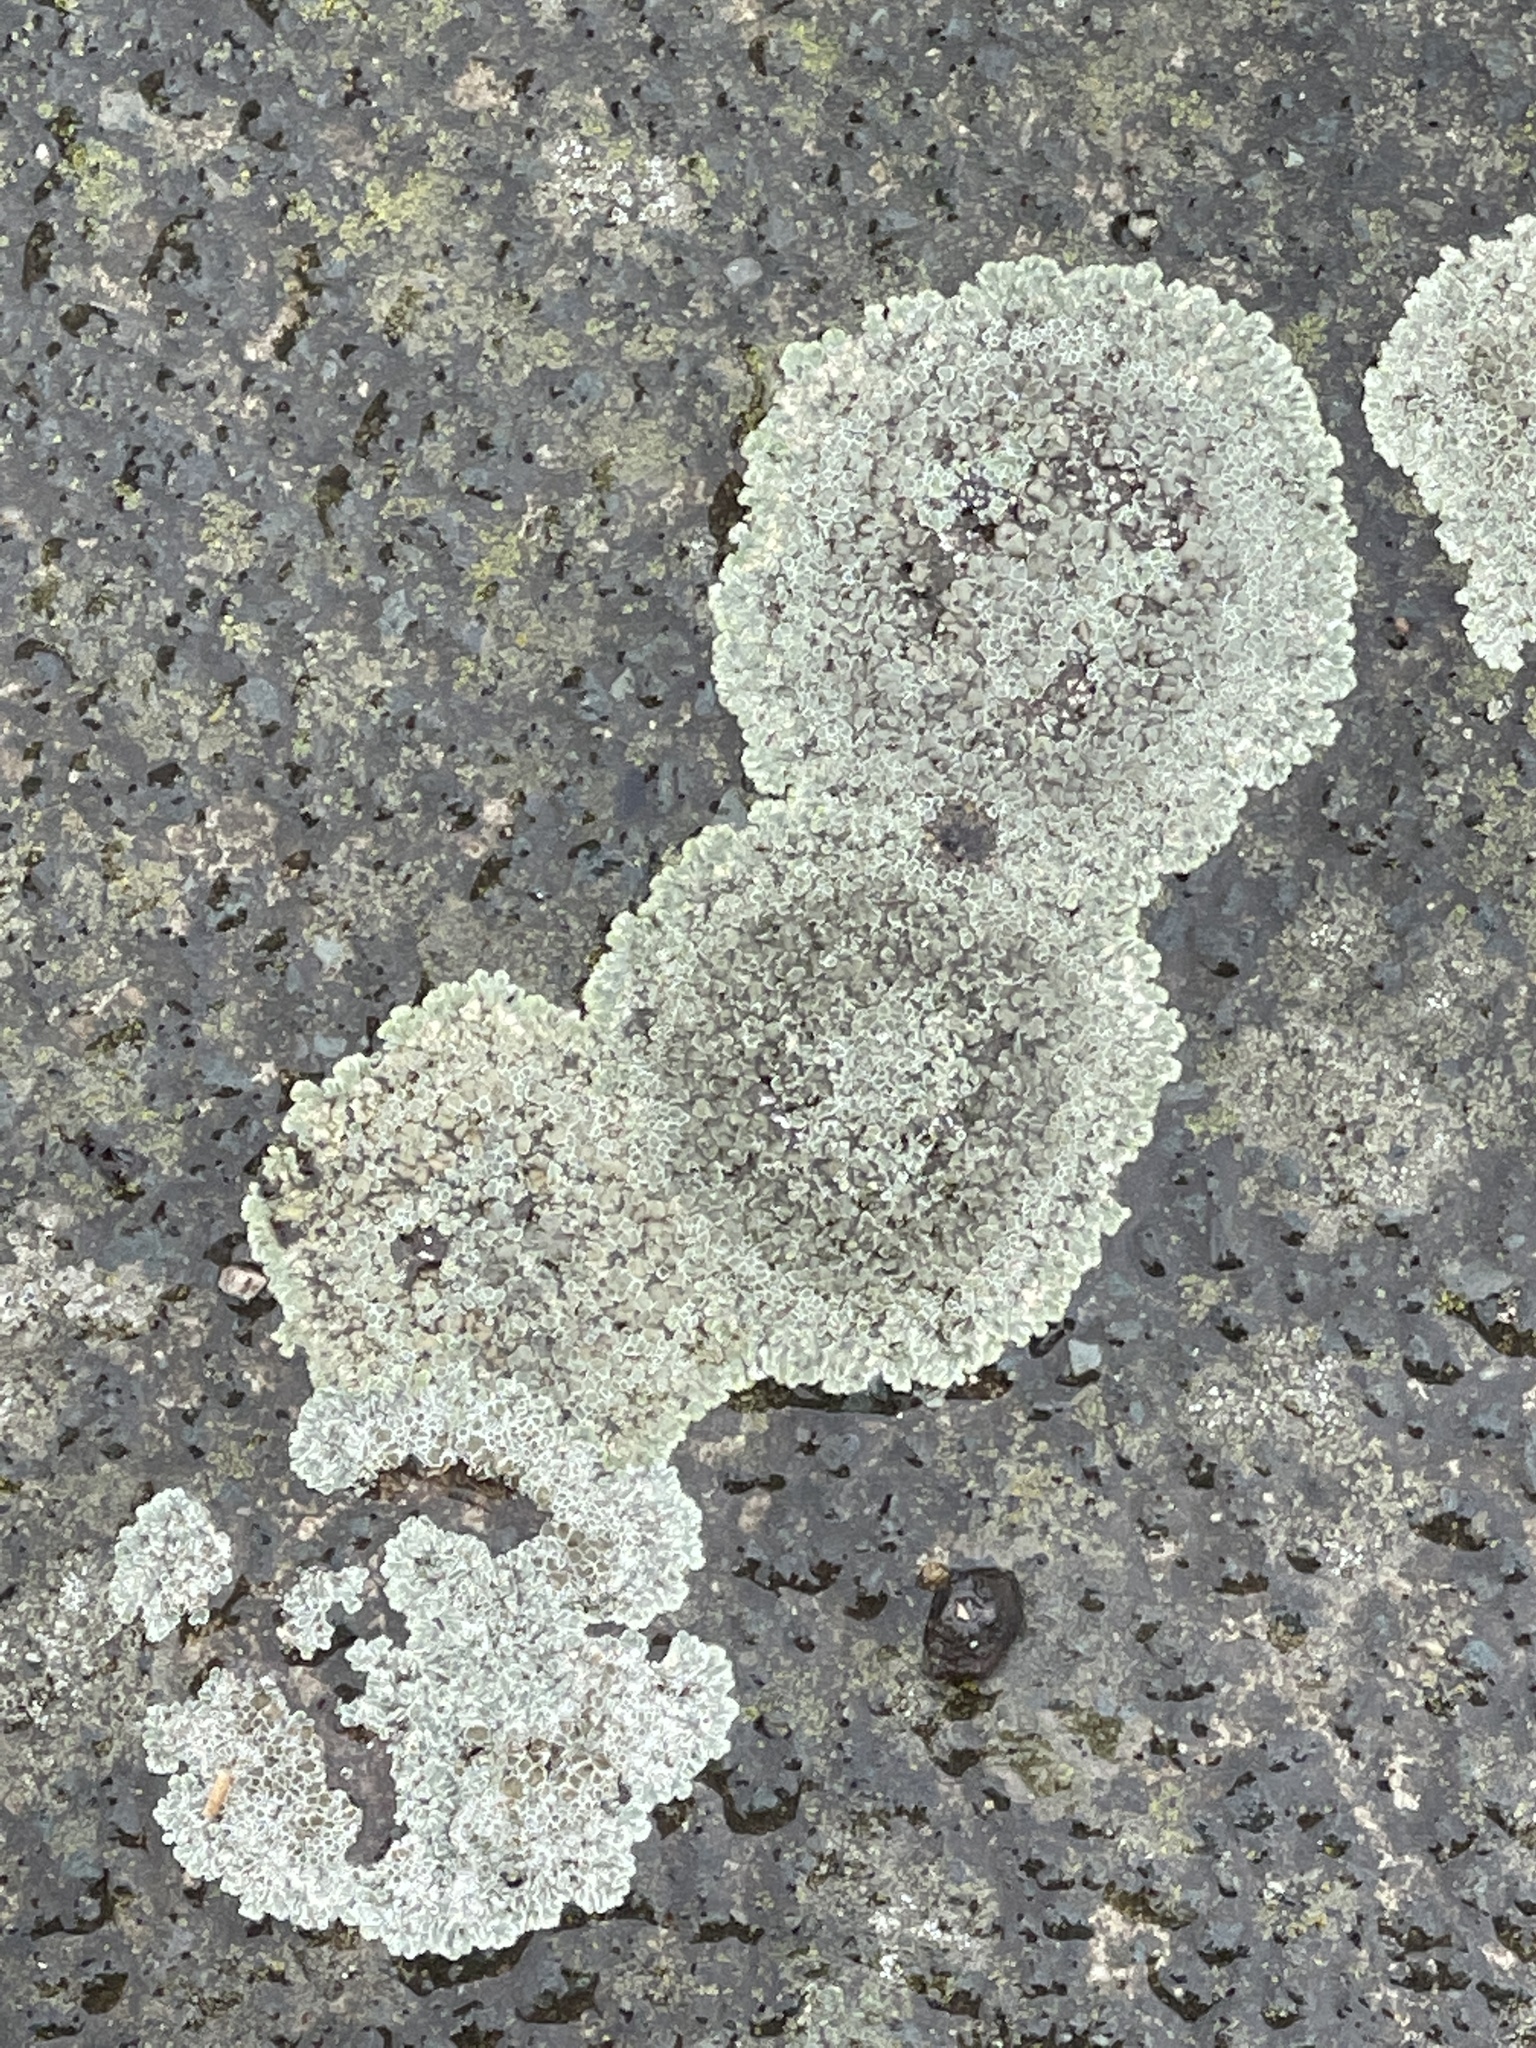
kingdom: Fungi
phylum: Ascomycota
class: Lecanoromycetes
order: Lecanorales
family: Lecanoraceae
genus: Protoparmeliopsis
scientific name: Protoparmeliopsis muralis
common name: Stonewall rim lichen
